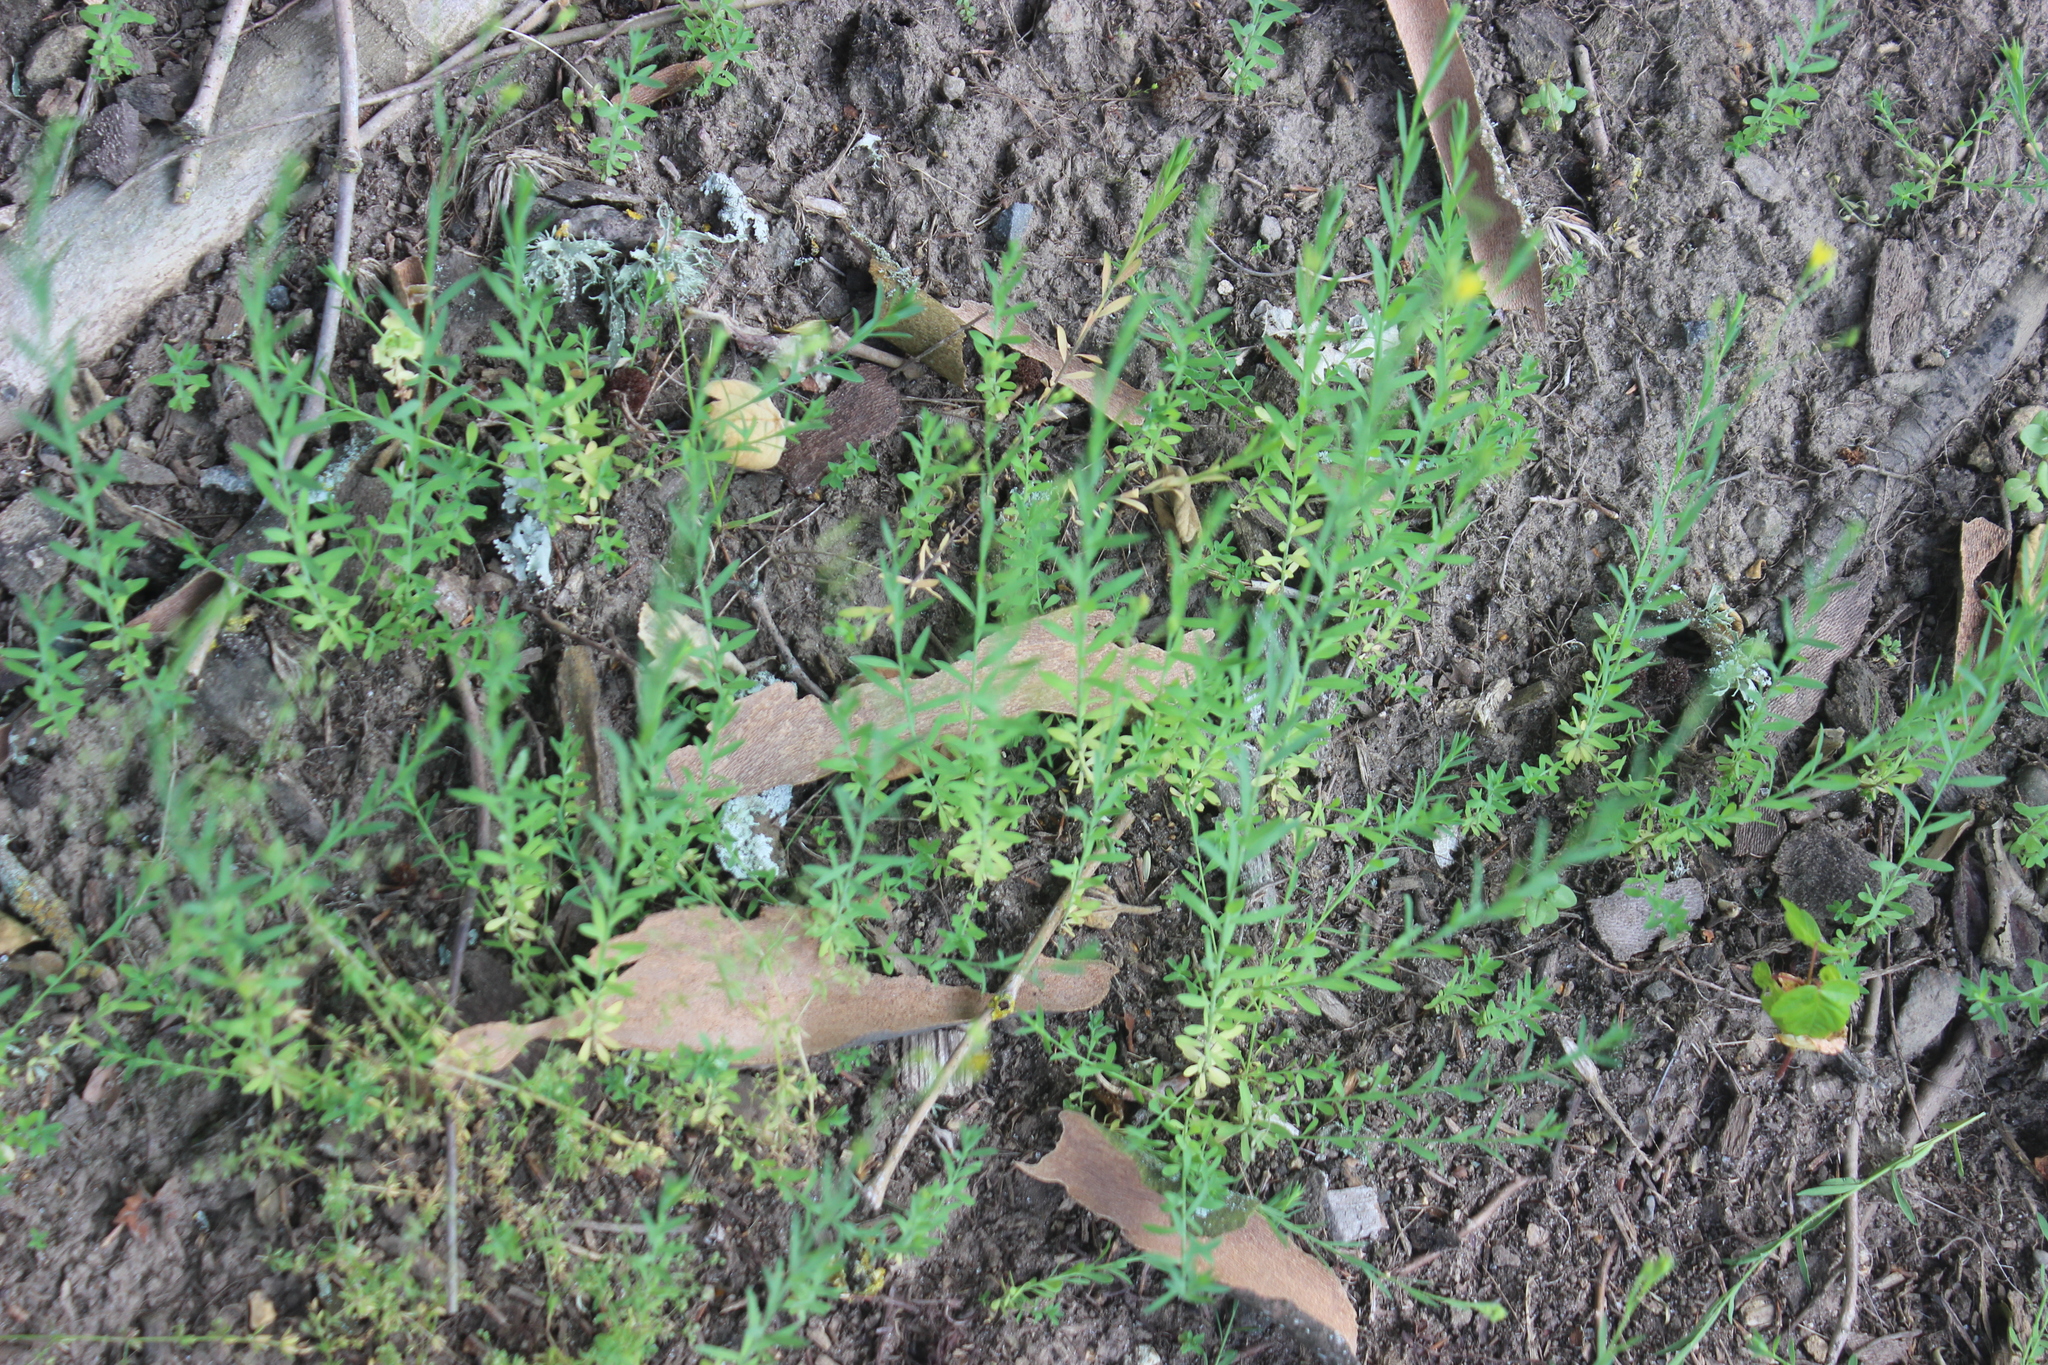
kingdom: Plantae
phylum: Tracheophyta
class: Magnoliopsida
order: Malpighiales
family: Linaceae
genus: Linum
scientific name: Linum trigynum
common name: French flax
